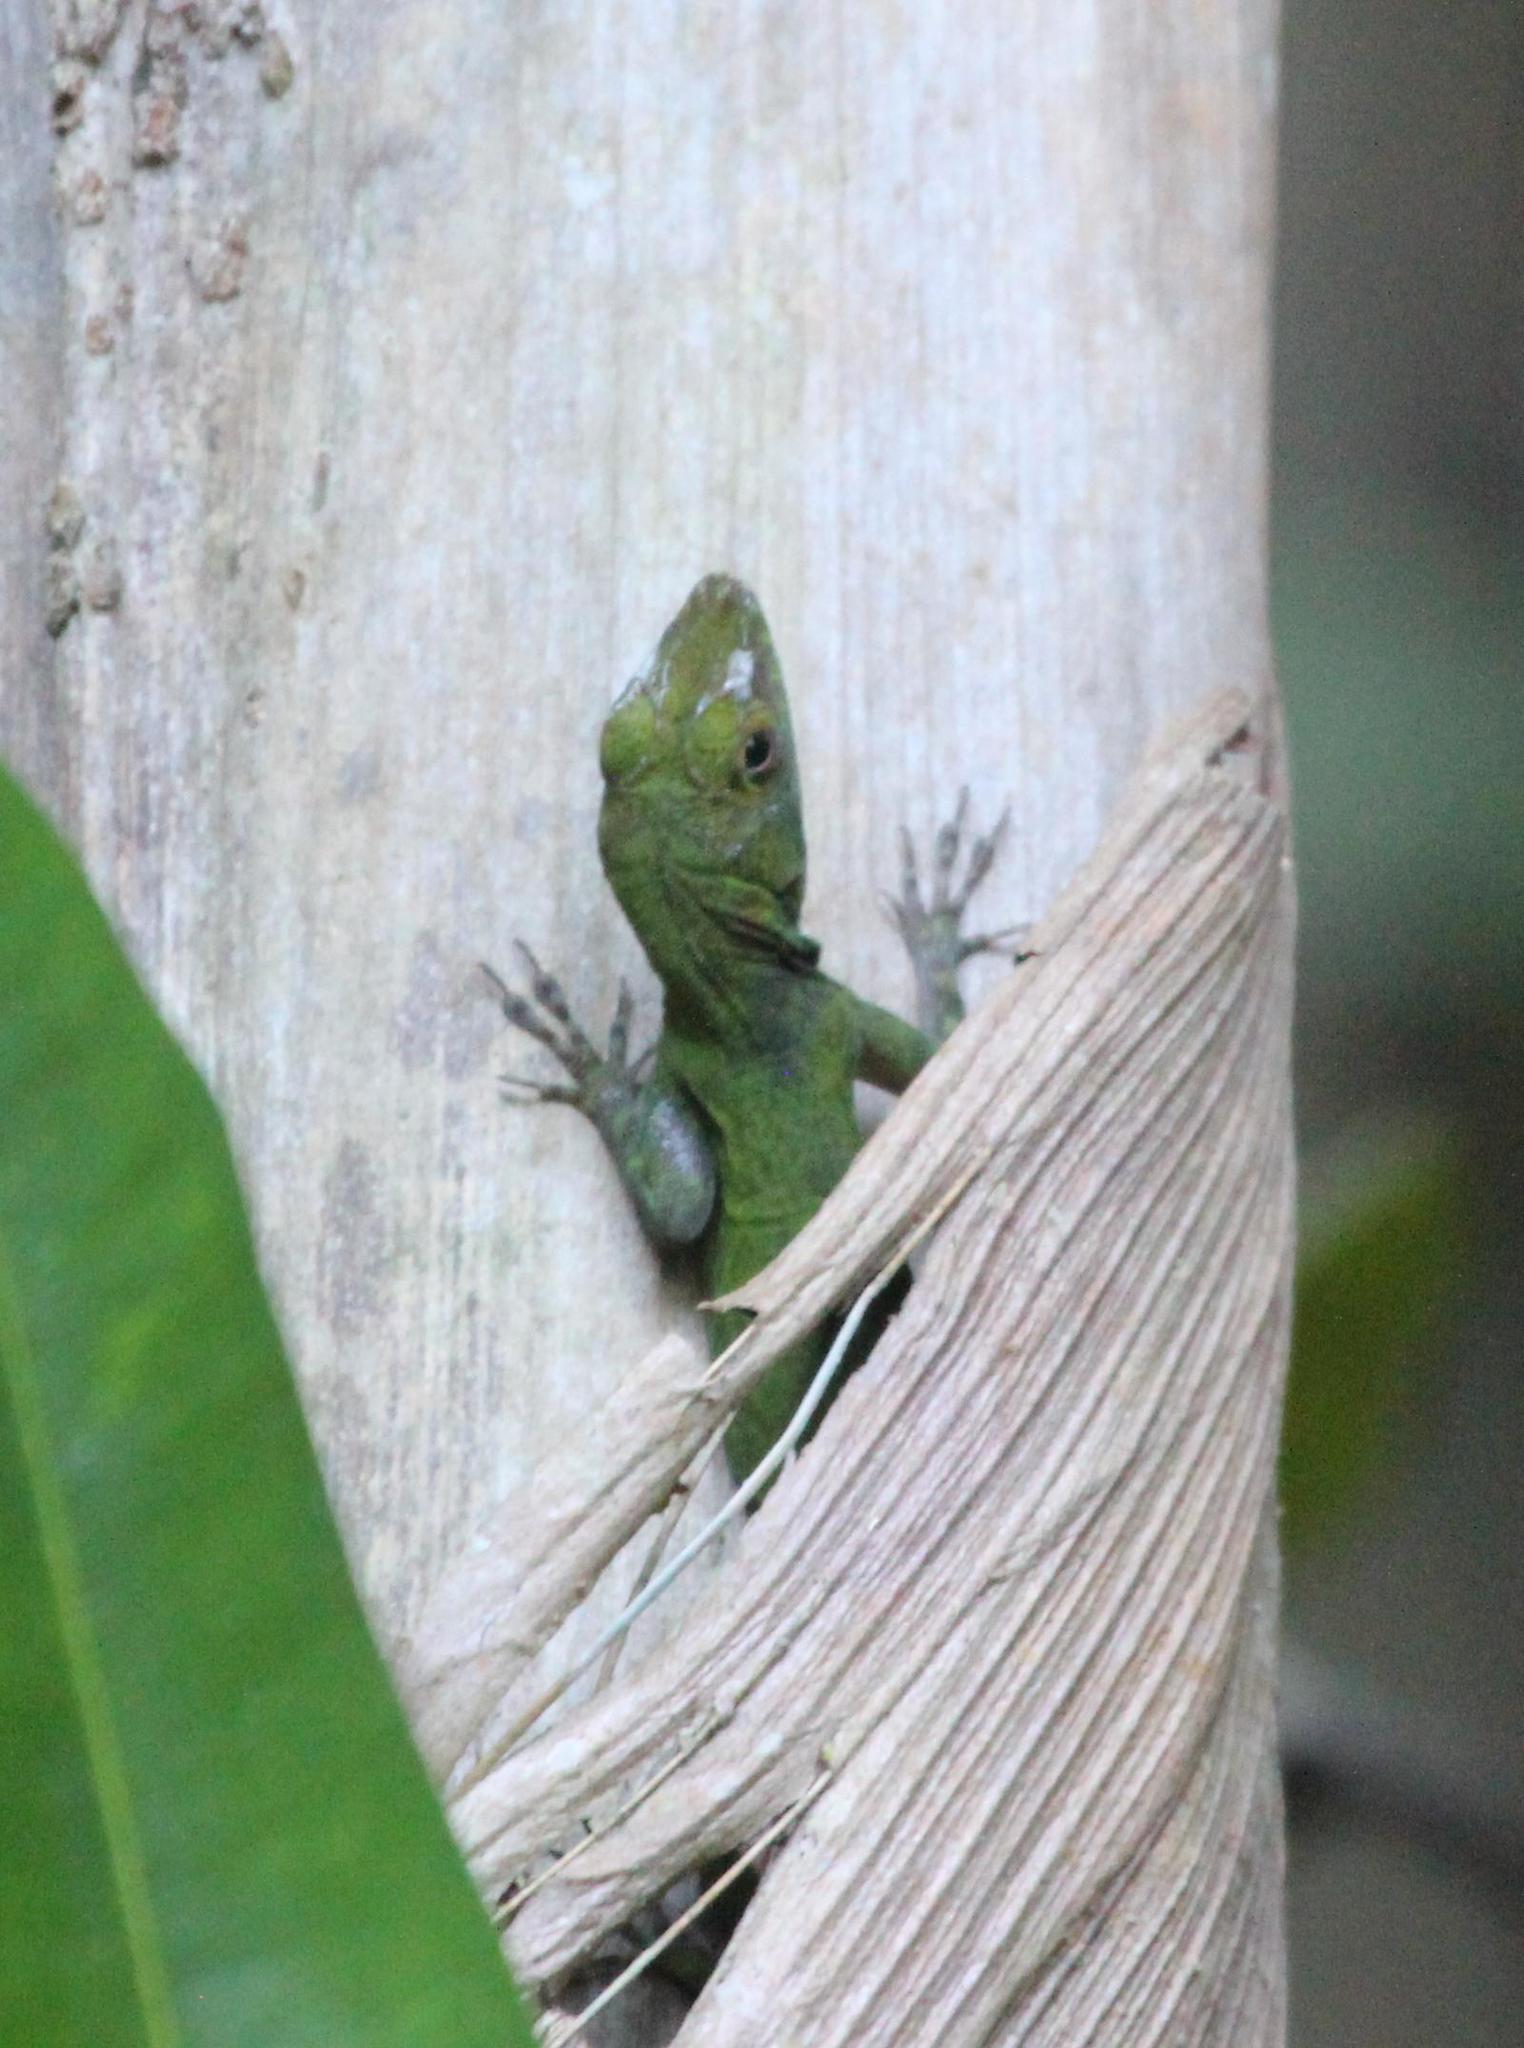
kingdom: Animalia
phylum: Chordata
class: Squamata
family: Dactyloidae
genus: Anolis
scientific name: Anolis evermanni
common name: Emerald anole
